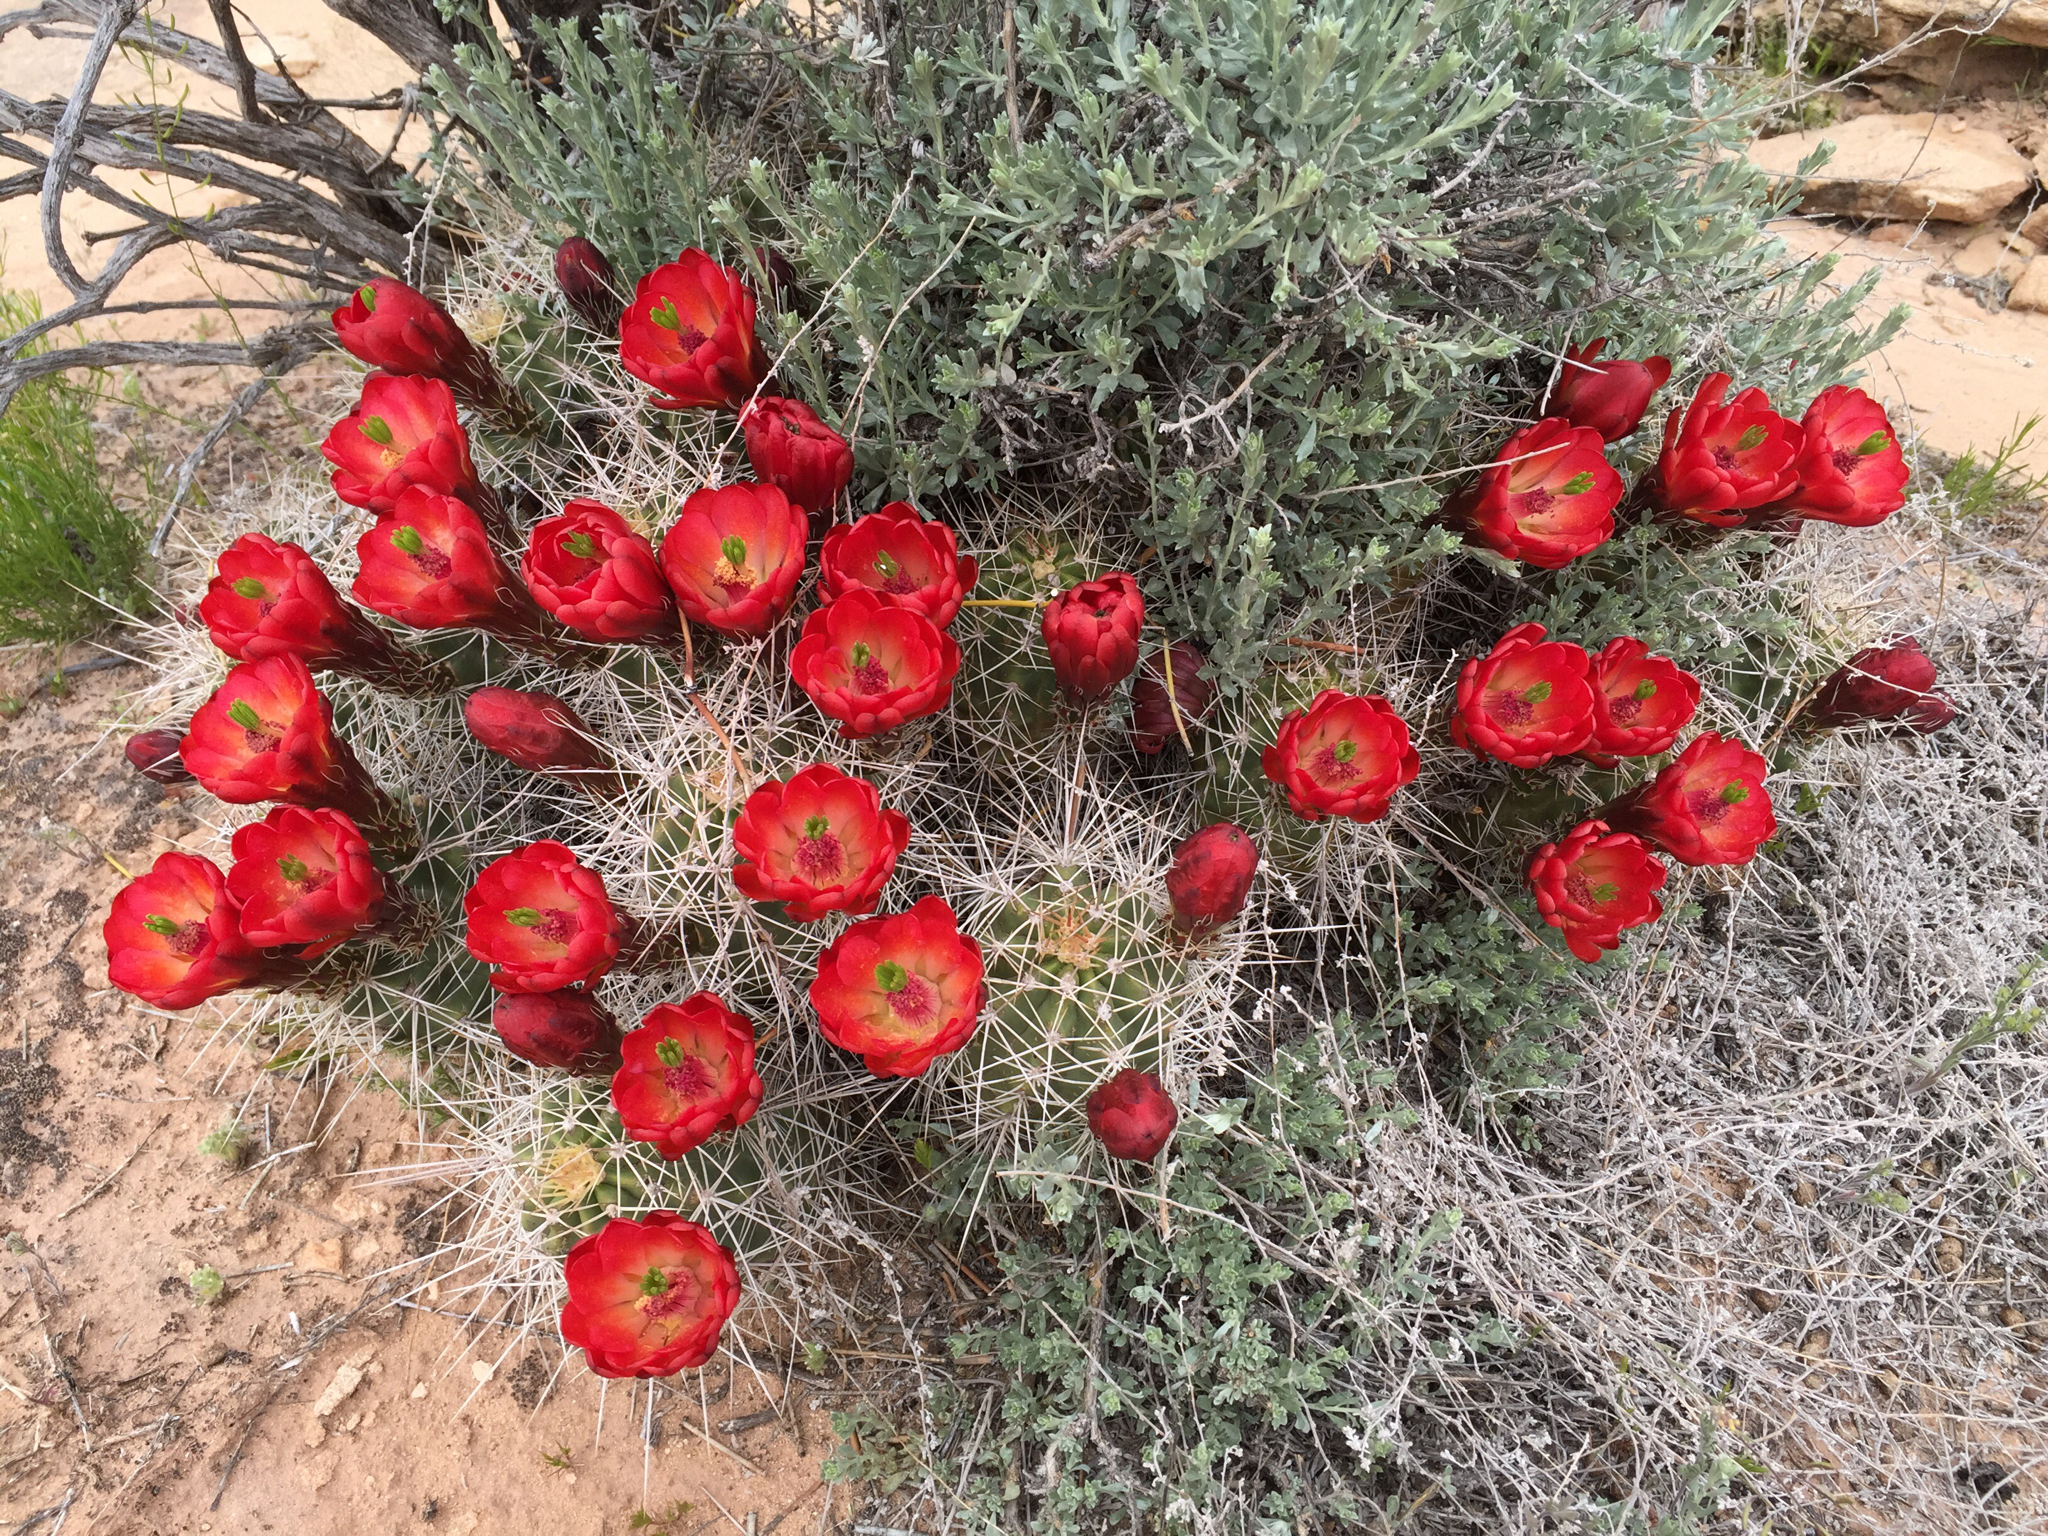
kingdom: Plantae
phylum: Tracheophyta
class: Magnoliopsida
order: Caryophyllales
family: Cactaceae
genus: Echinocereus
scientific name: Echinocereus triglochidiatus
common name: Claretcup hedgehog
